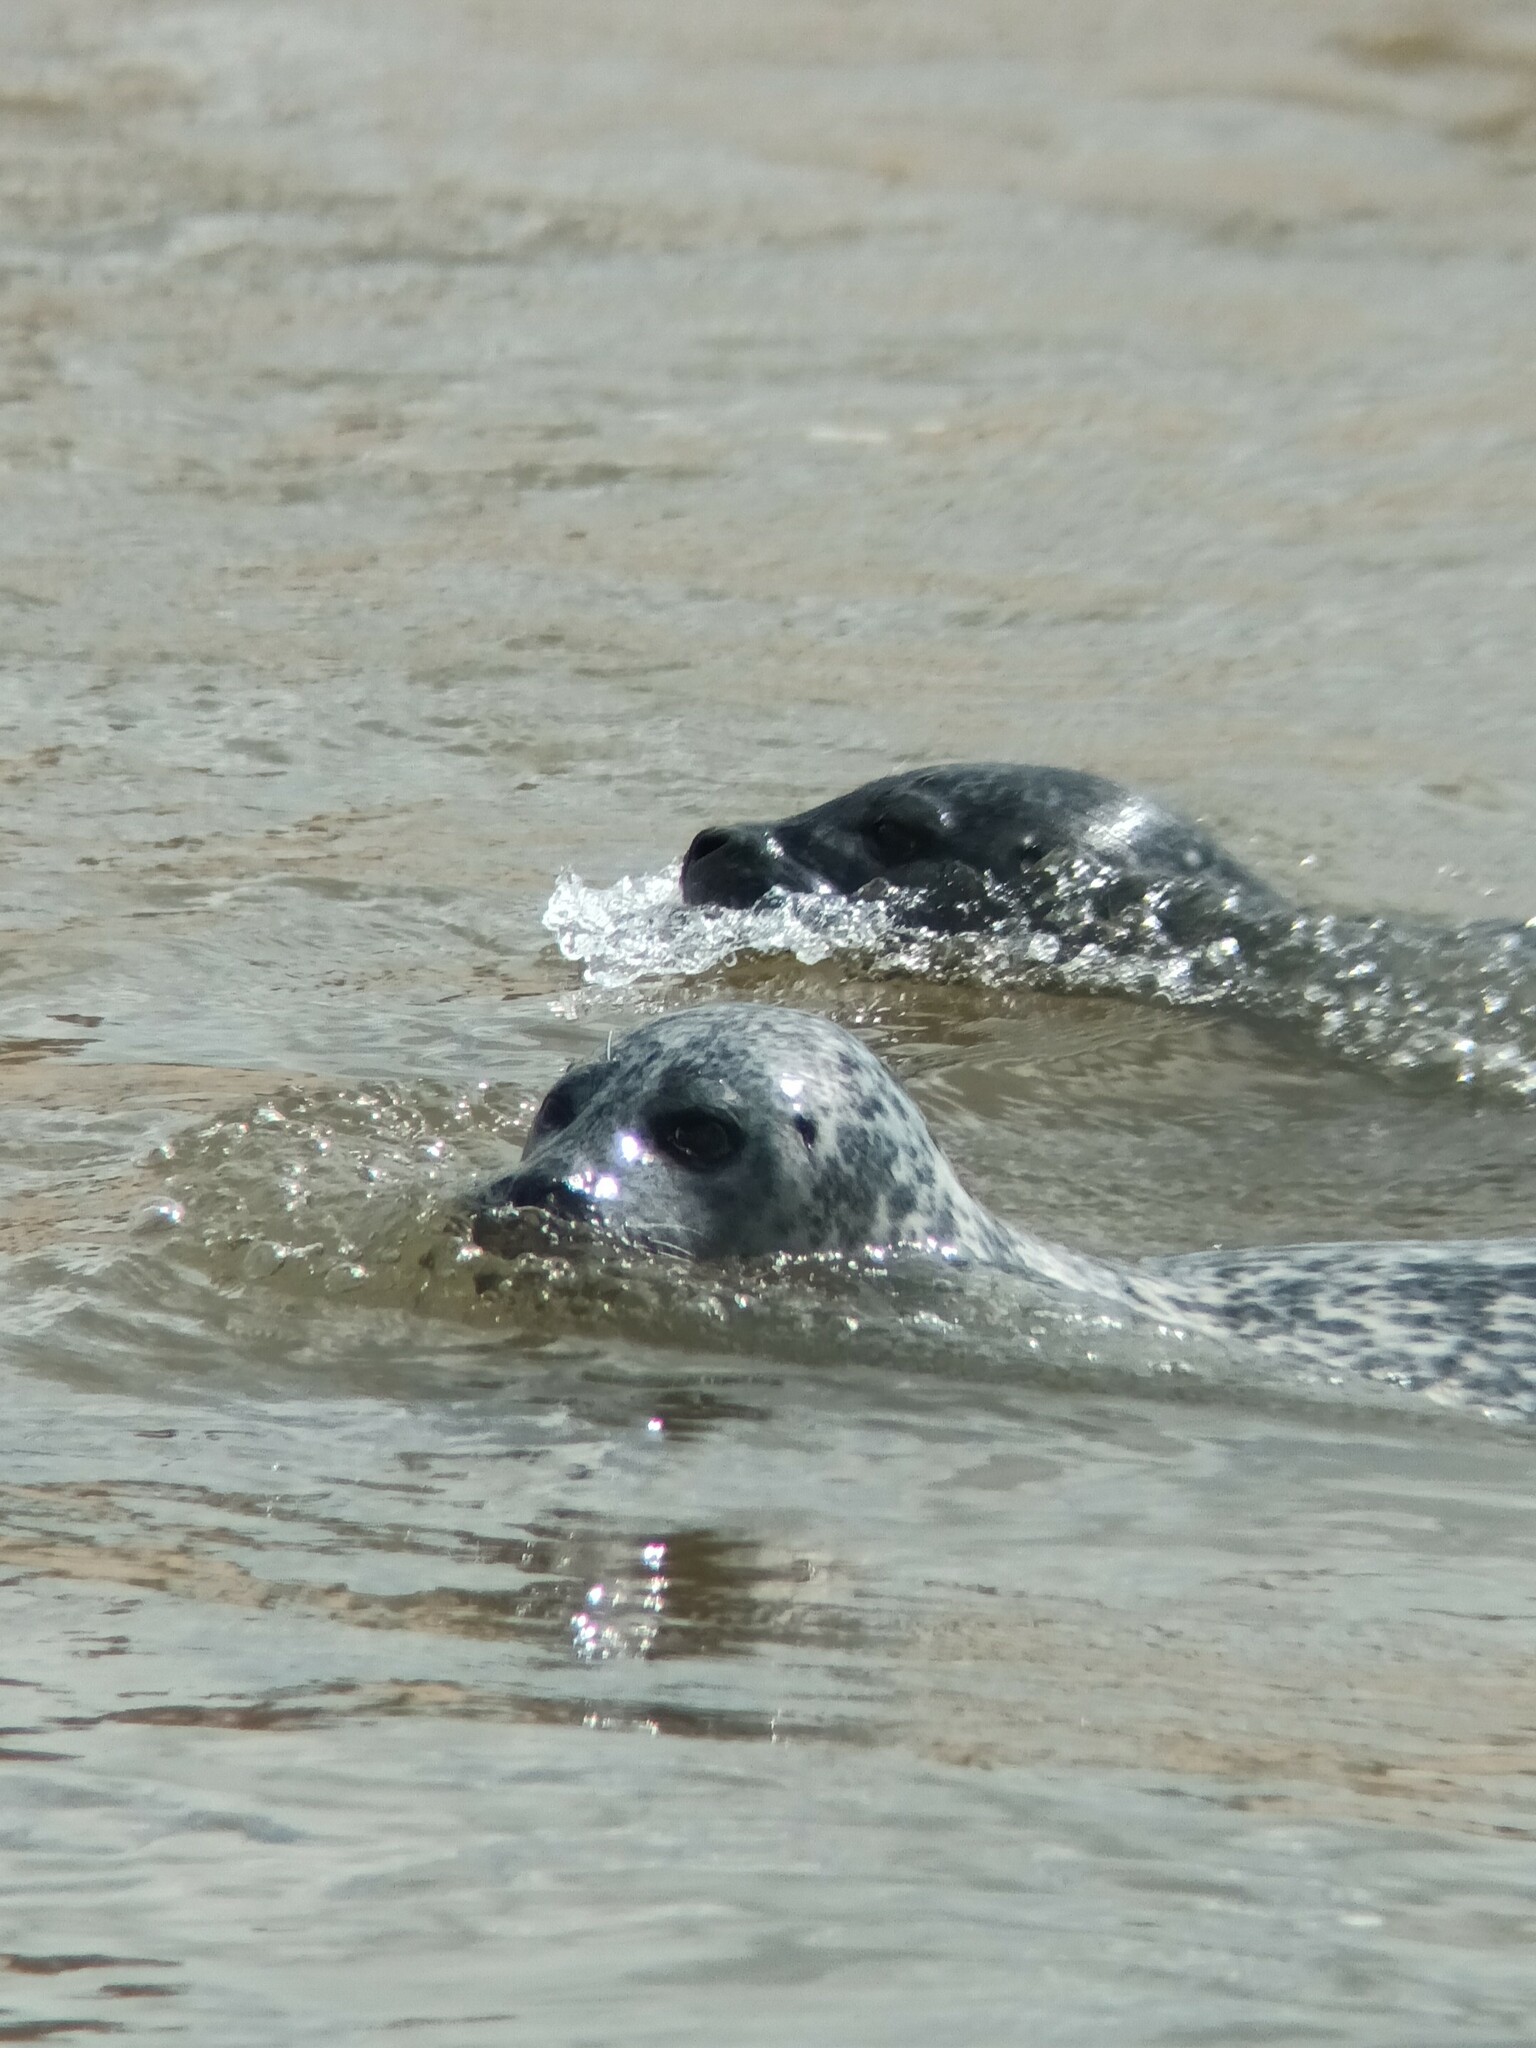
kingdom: Animalia
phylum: Chordata
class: Mammalia
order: Carnivora
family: Phocidae
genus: Phoca
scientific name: Phoca vitulina
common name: Harbor seal
